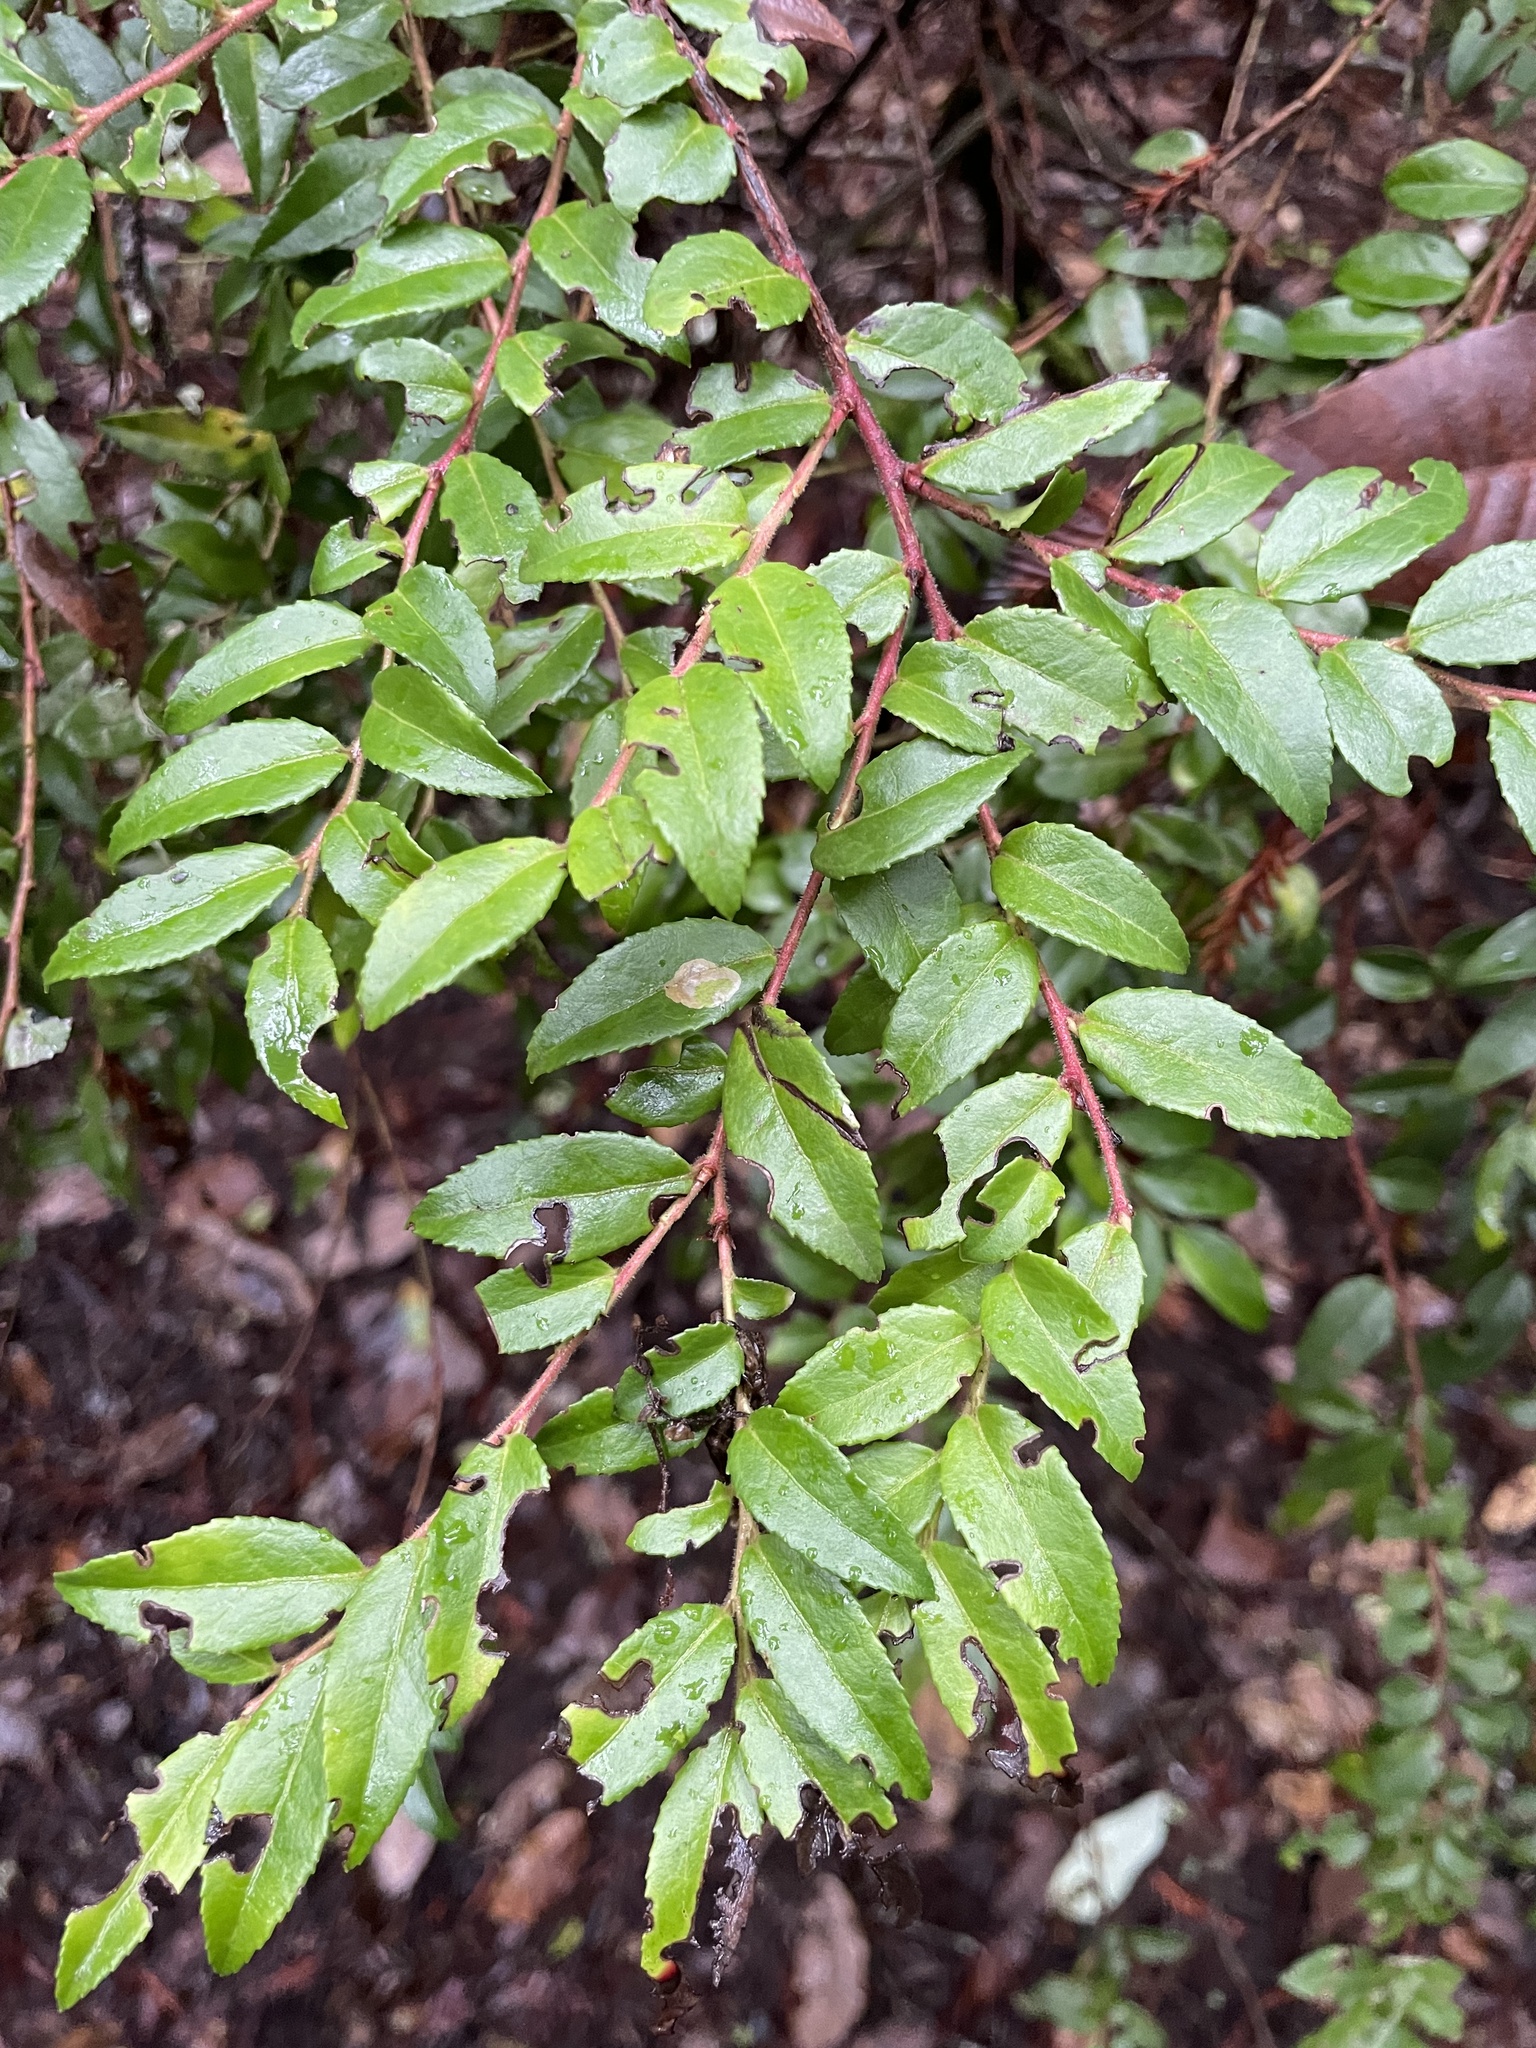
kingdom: Plantae
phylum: Tracheophyta
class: Magnoliopsida
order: Ericales
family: Ericaceae
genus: Vaccinium
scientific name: Vaccinium ovatum
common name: California-huckleberry
